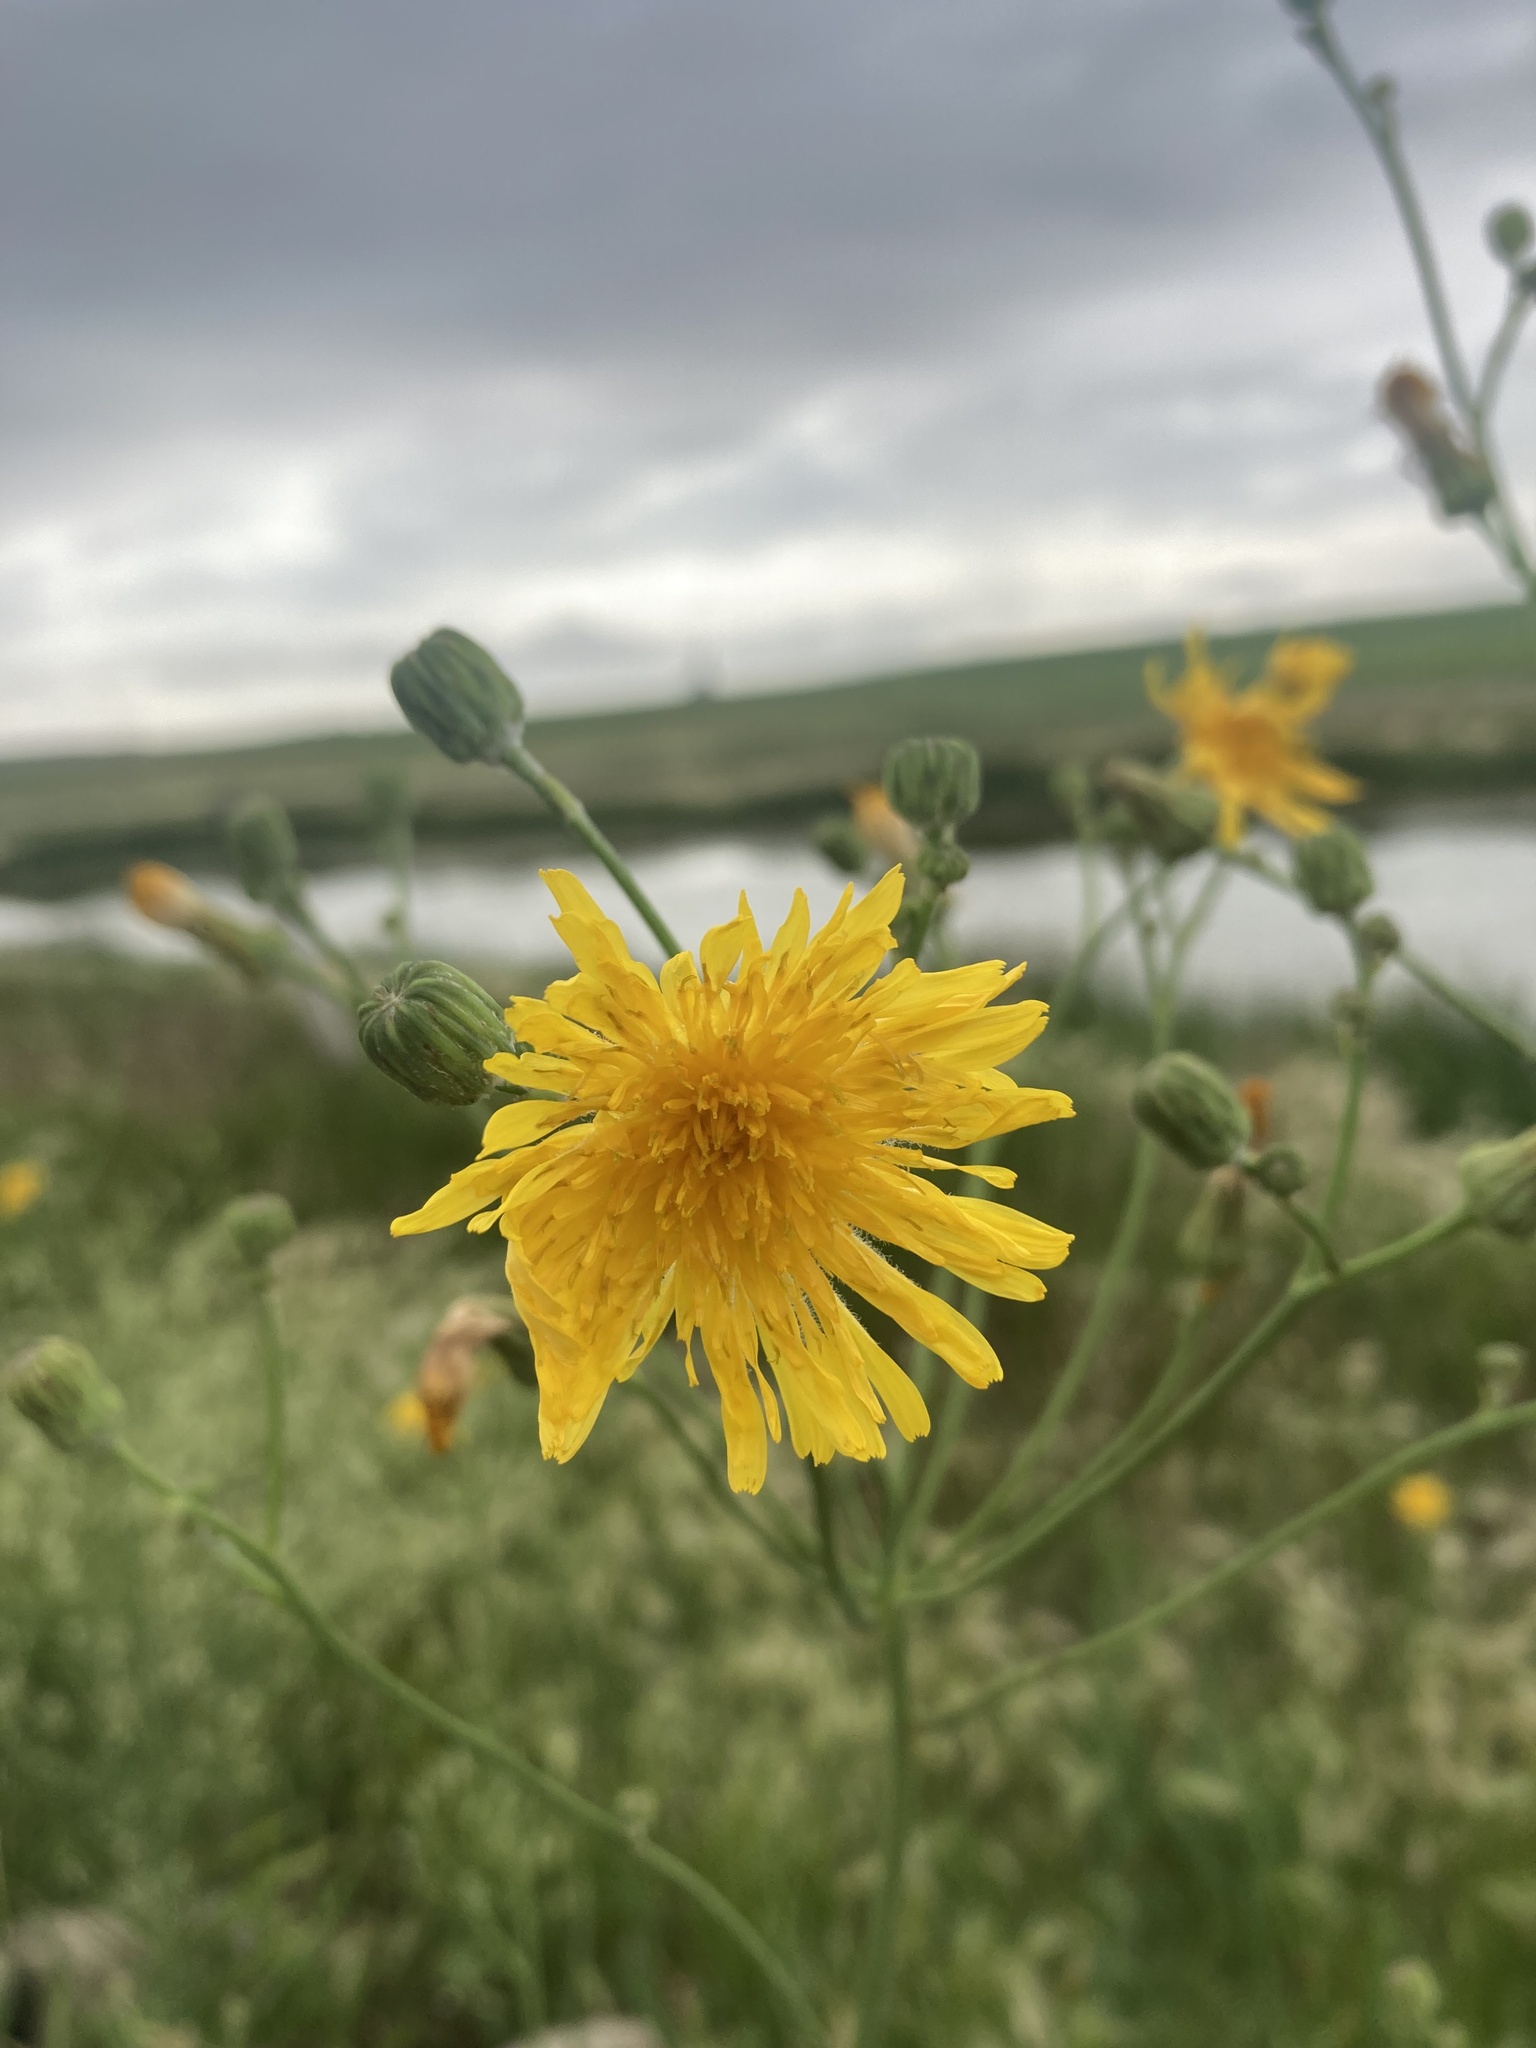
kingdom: Plantae
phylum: Tracheophyta
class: Magnoliopsida
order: Asterales
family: Asteraceae
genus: Sonchus
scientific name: Sonchus arvensis
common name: Perennial sow-thistle
